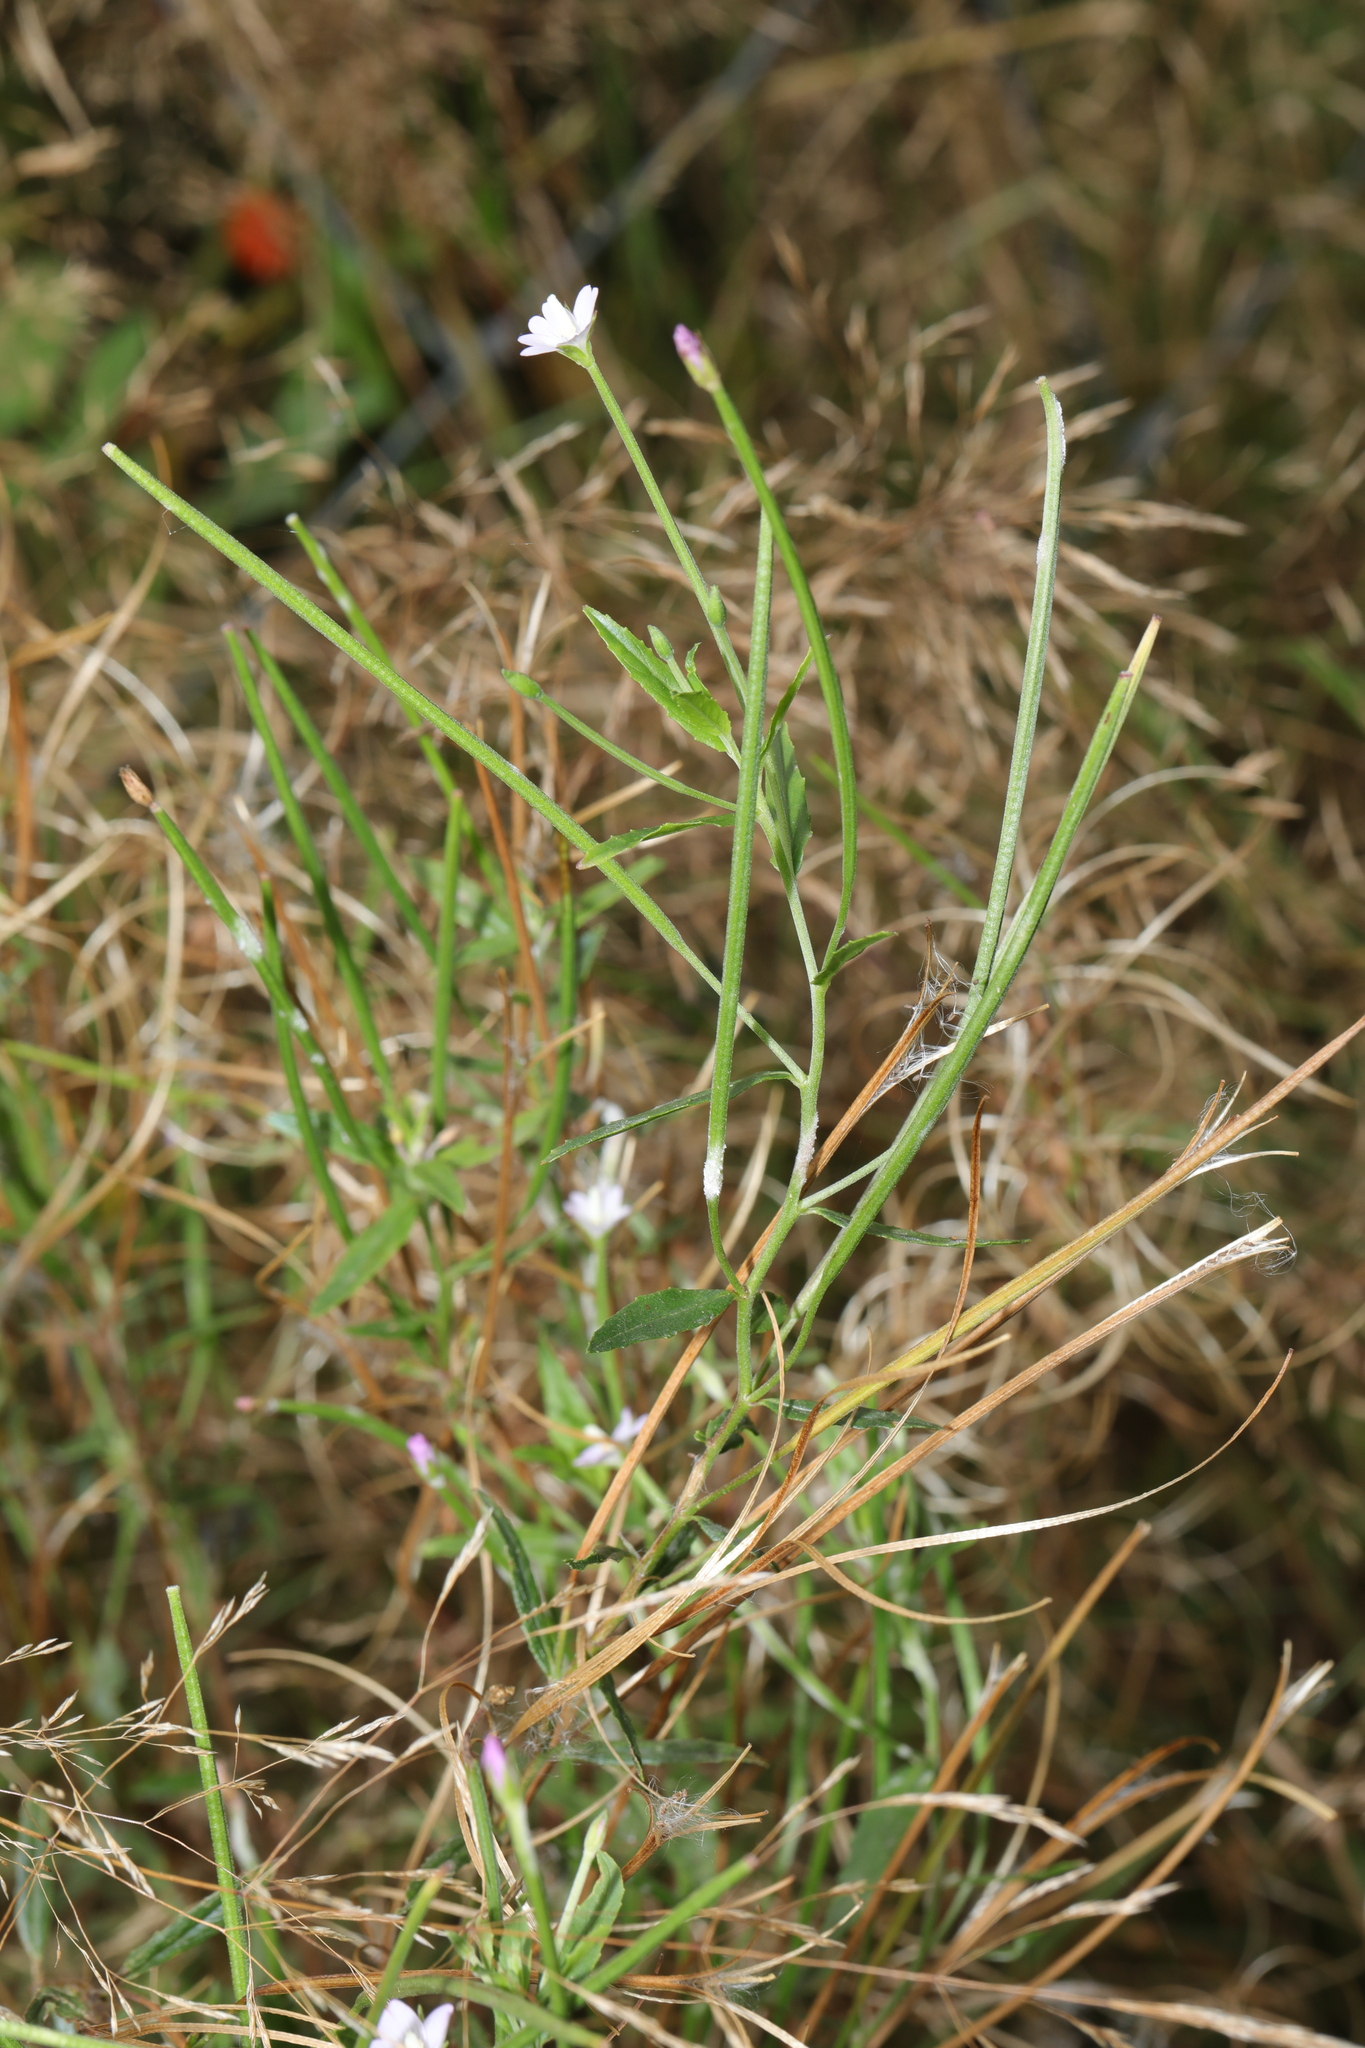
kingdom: Plantae
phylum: Tracheophyta
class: Magnoliopsida
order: Myrtales
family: Onagraceae
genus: Epilobium
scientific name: Epilobium ciliatum
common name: American willowherb
